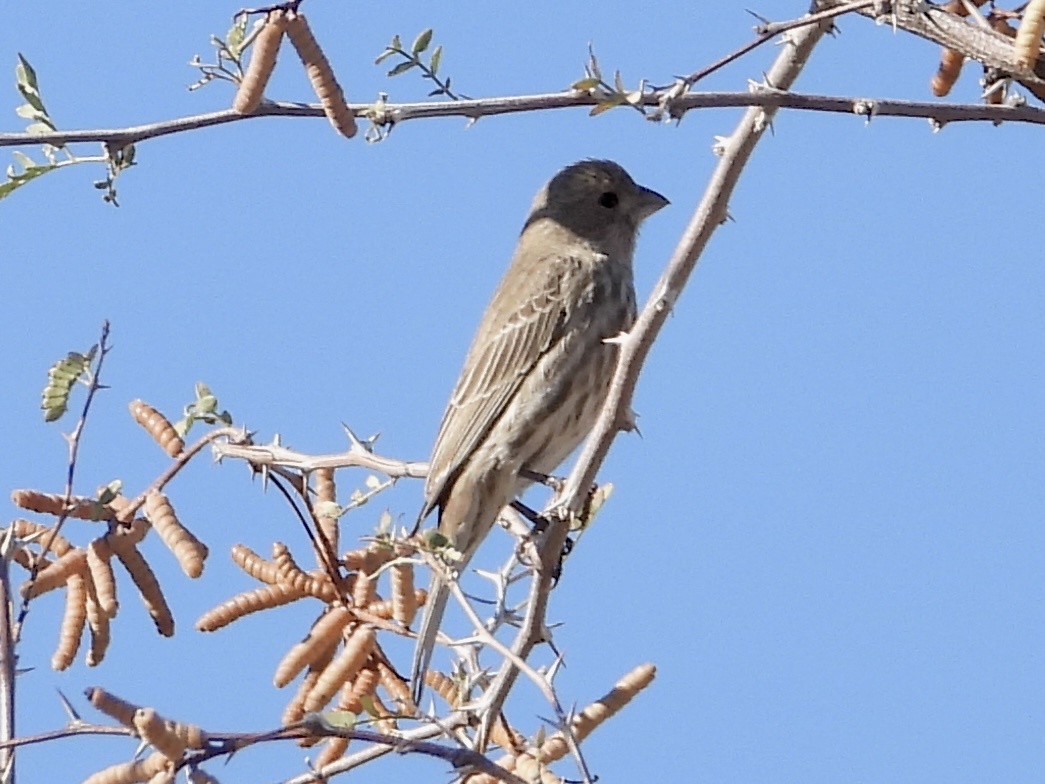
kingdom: Animalia
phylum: Chordata
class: Aves
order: Passeriformes
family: Fringillidae
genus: Haemorhous
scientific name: Haemorhous mexicanus
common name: House finch
